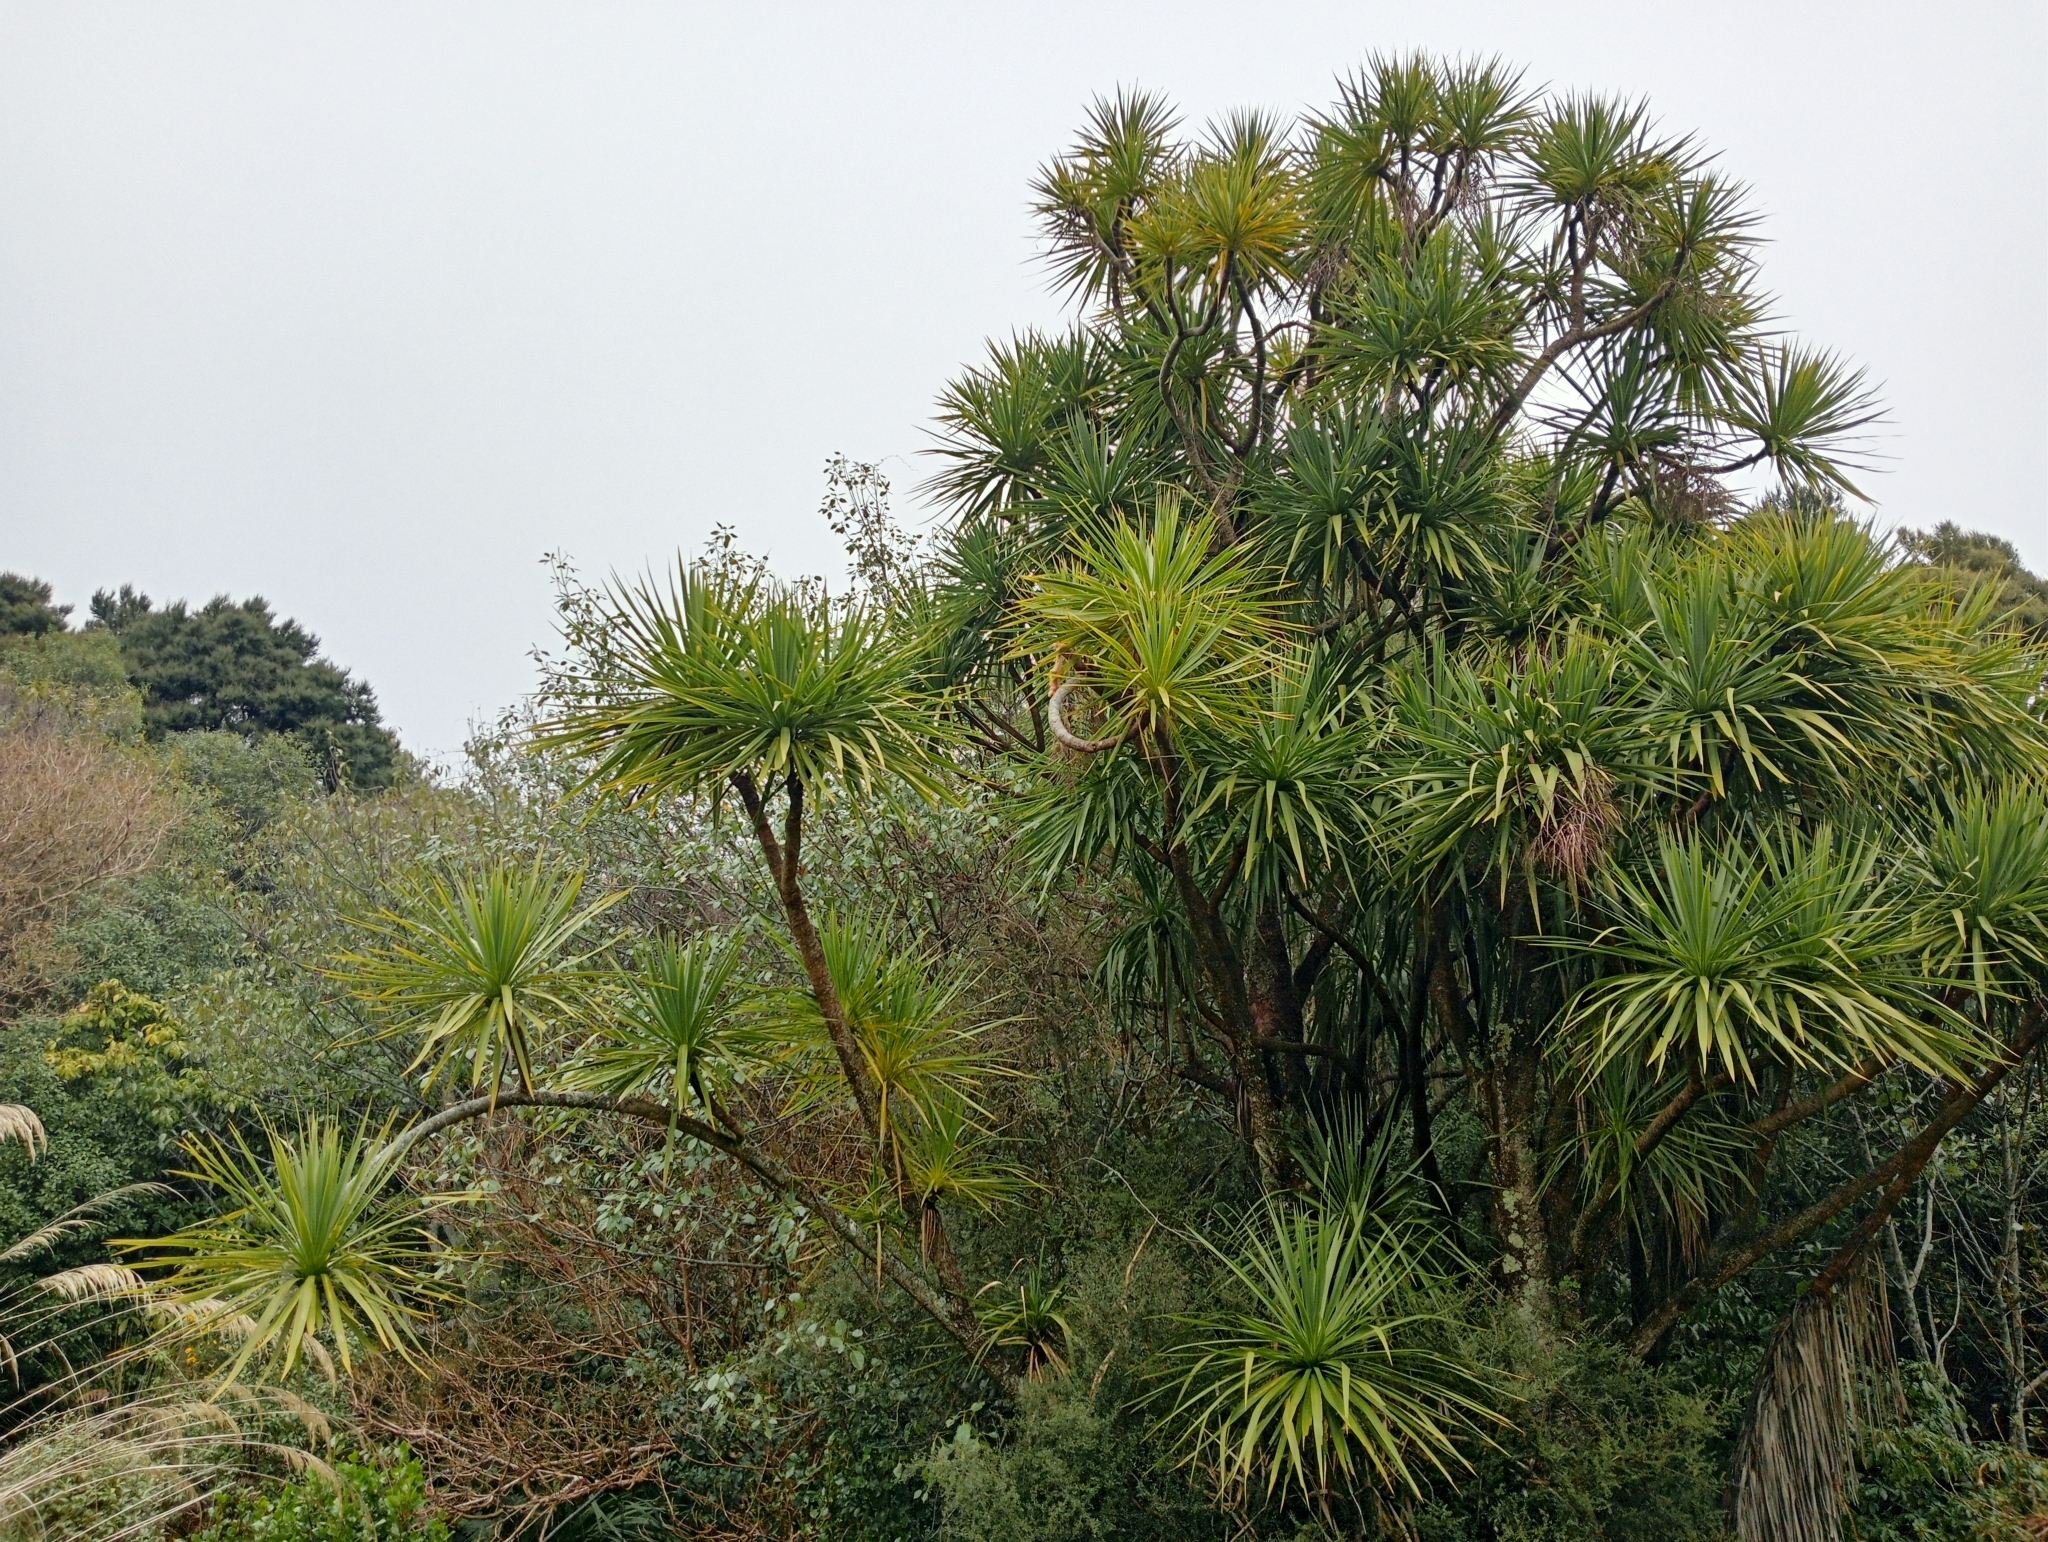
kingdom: Plantae
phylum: Tracheophyta
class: Liliopsida
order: Asparagales
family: Asparagaceae
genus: Cordyline
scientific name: Cordyline australis
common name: Cabbage-palm
